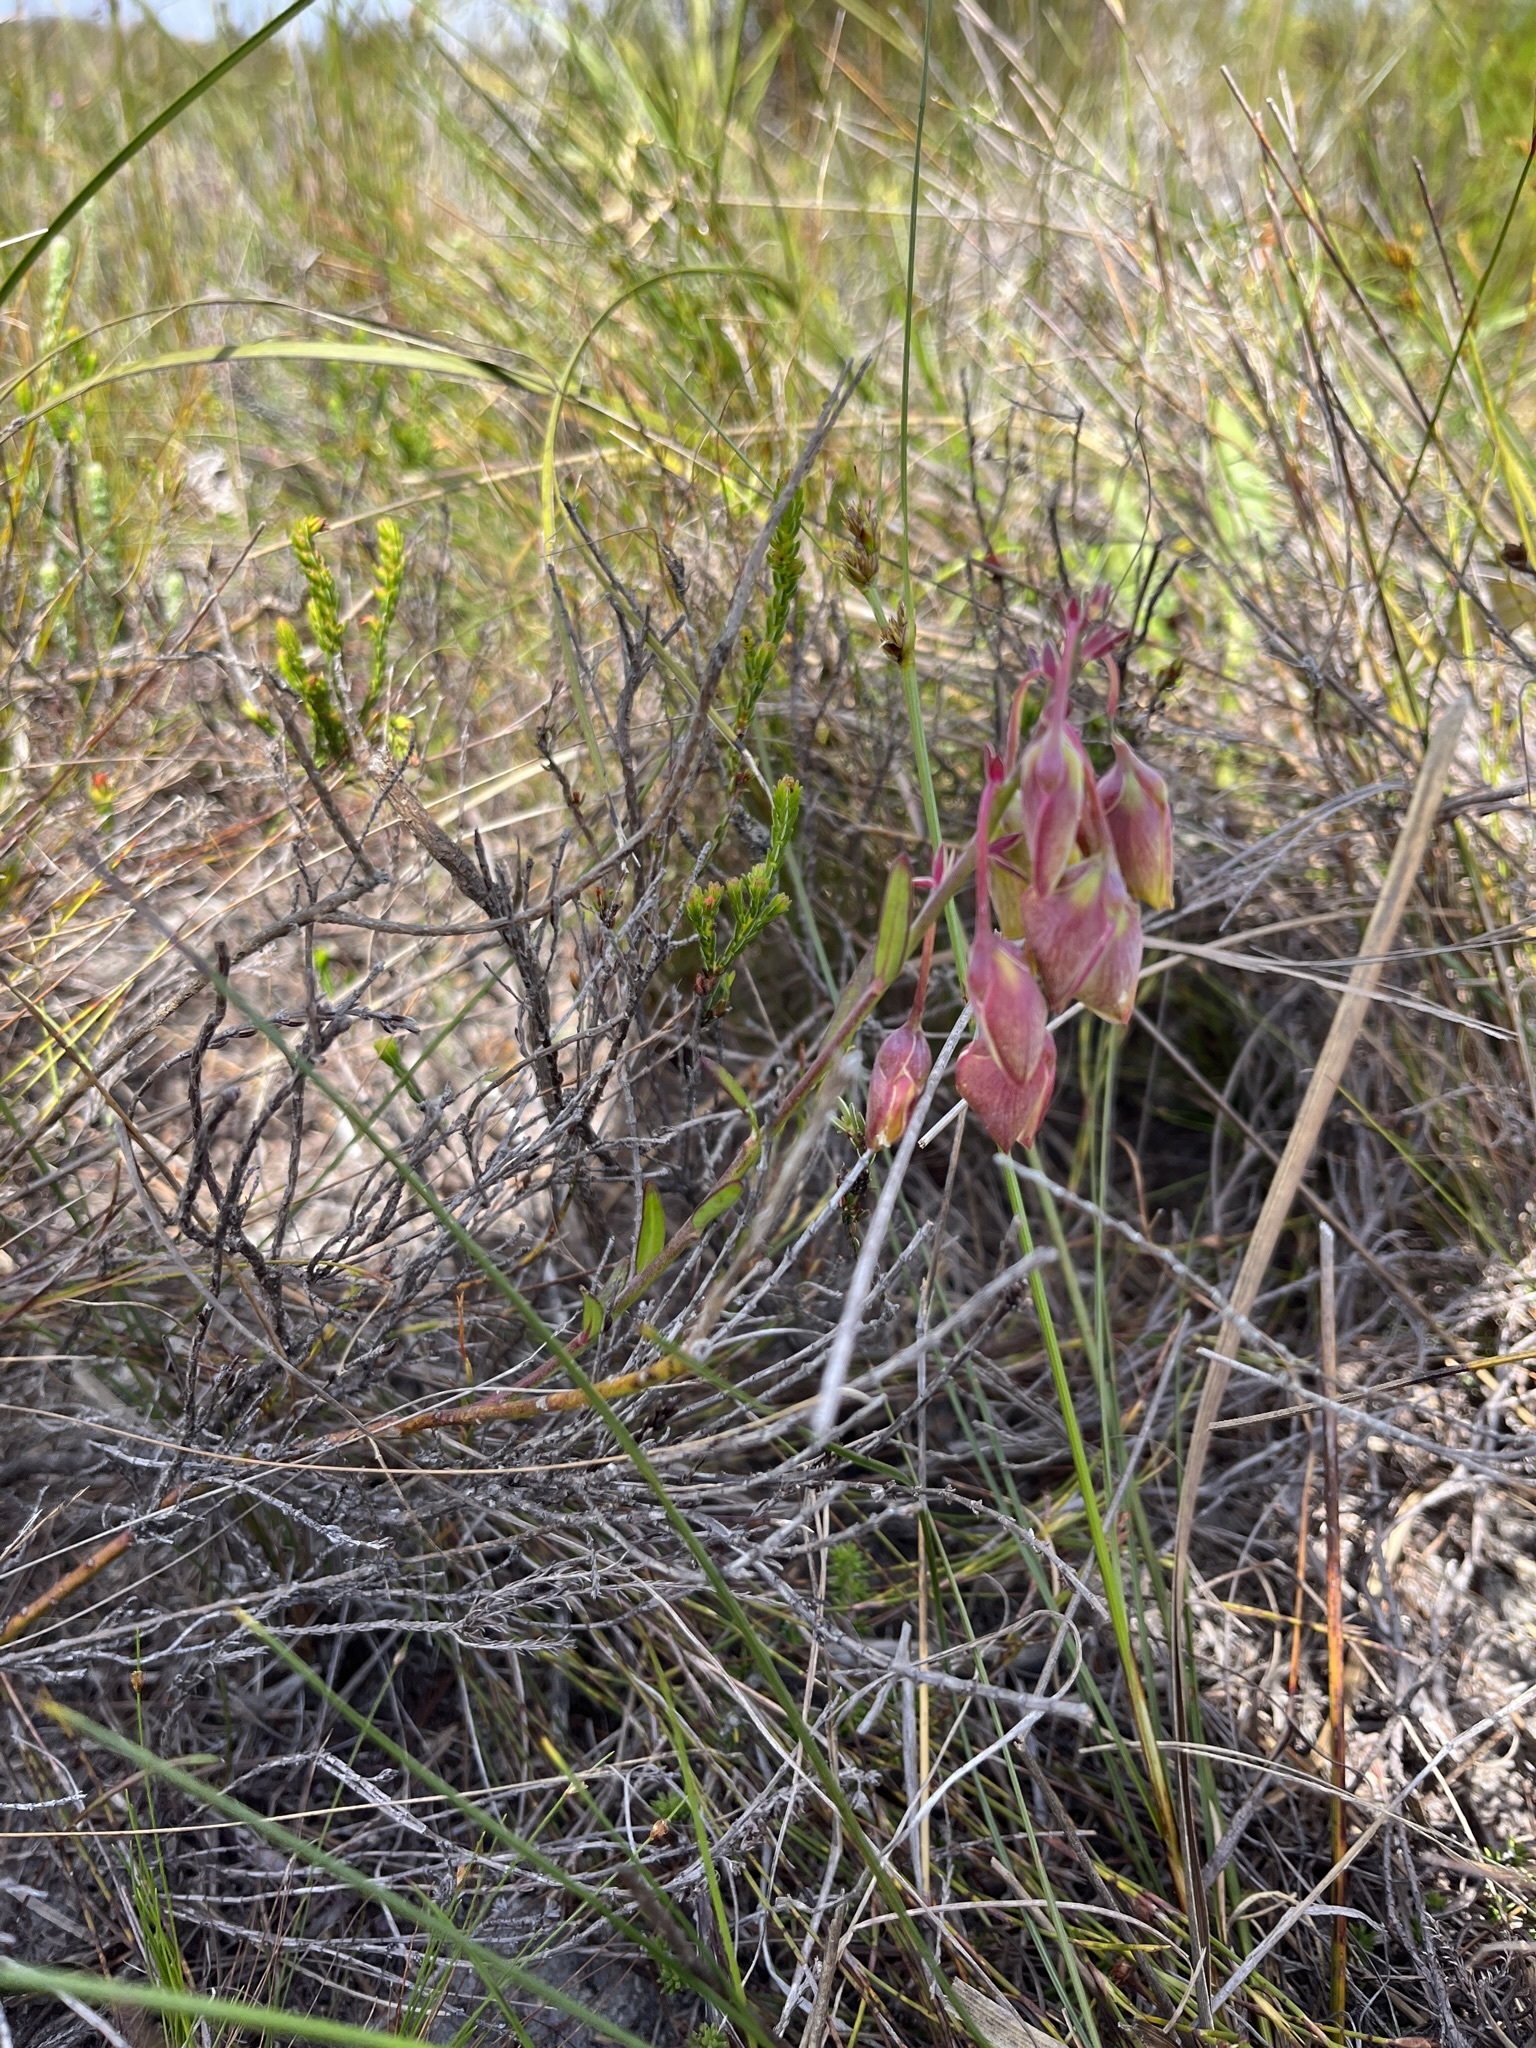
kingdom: Plantae
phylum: Tracheophyta
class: Magnoliopsida
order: Fabales
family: Polygalaceae
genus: Polygala
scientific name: Polygala bracteolata
